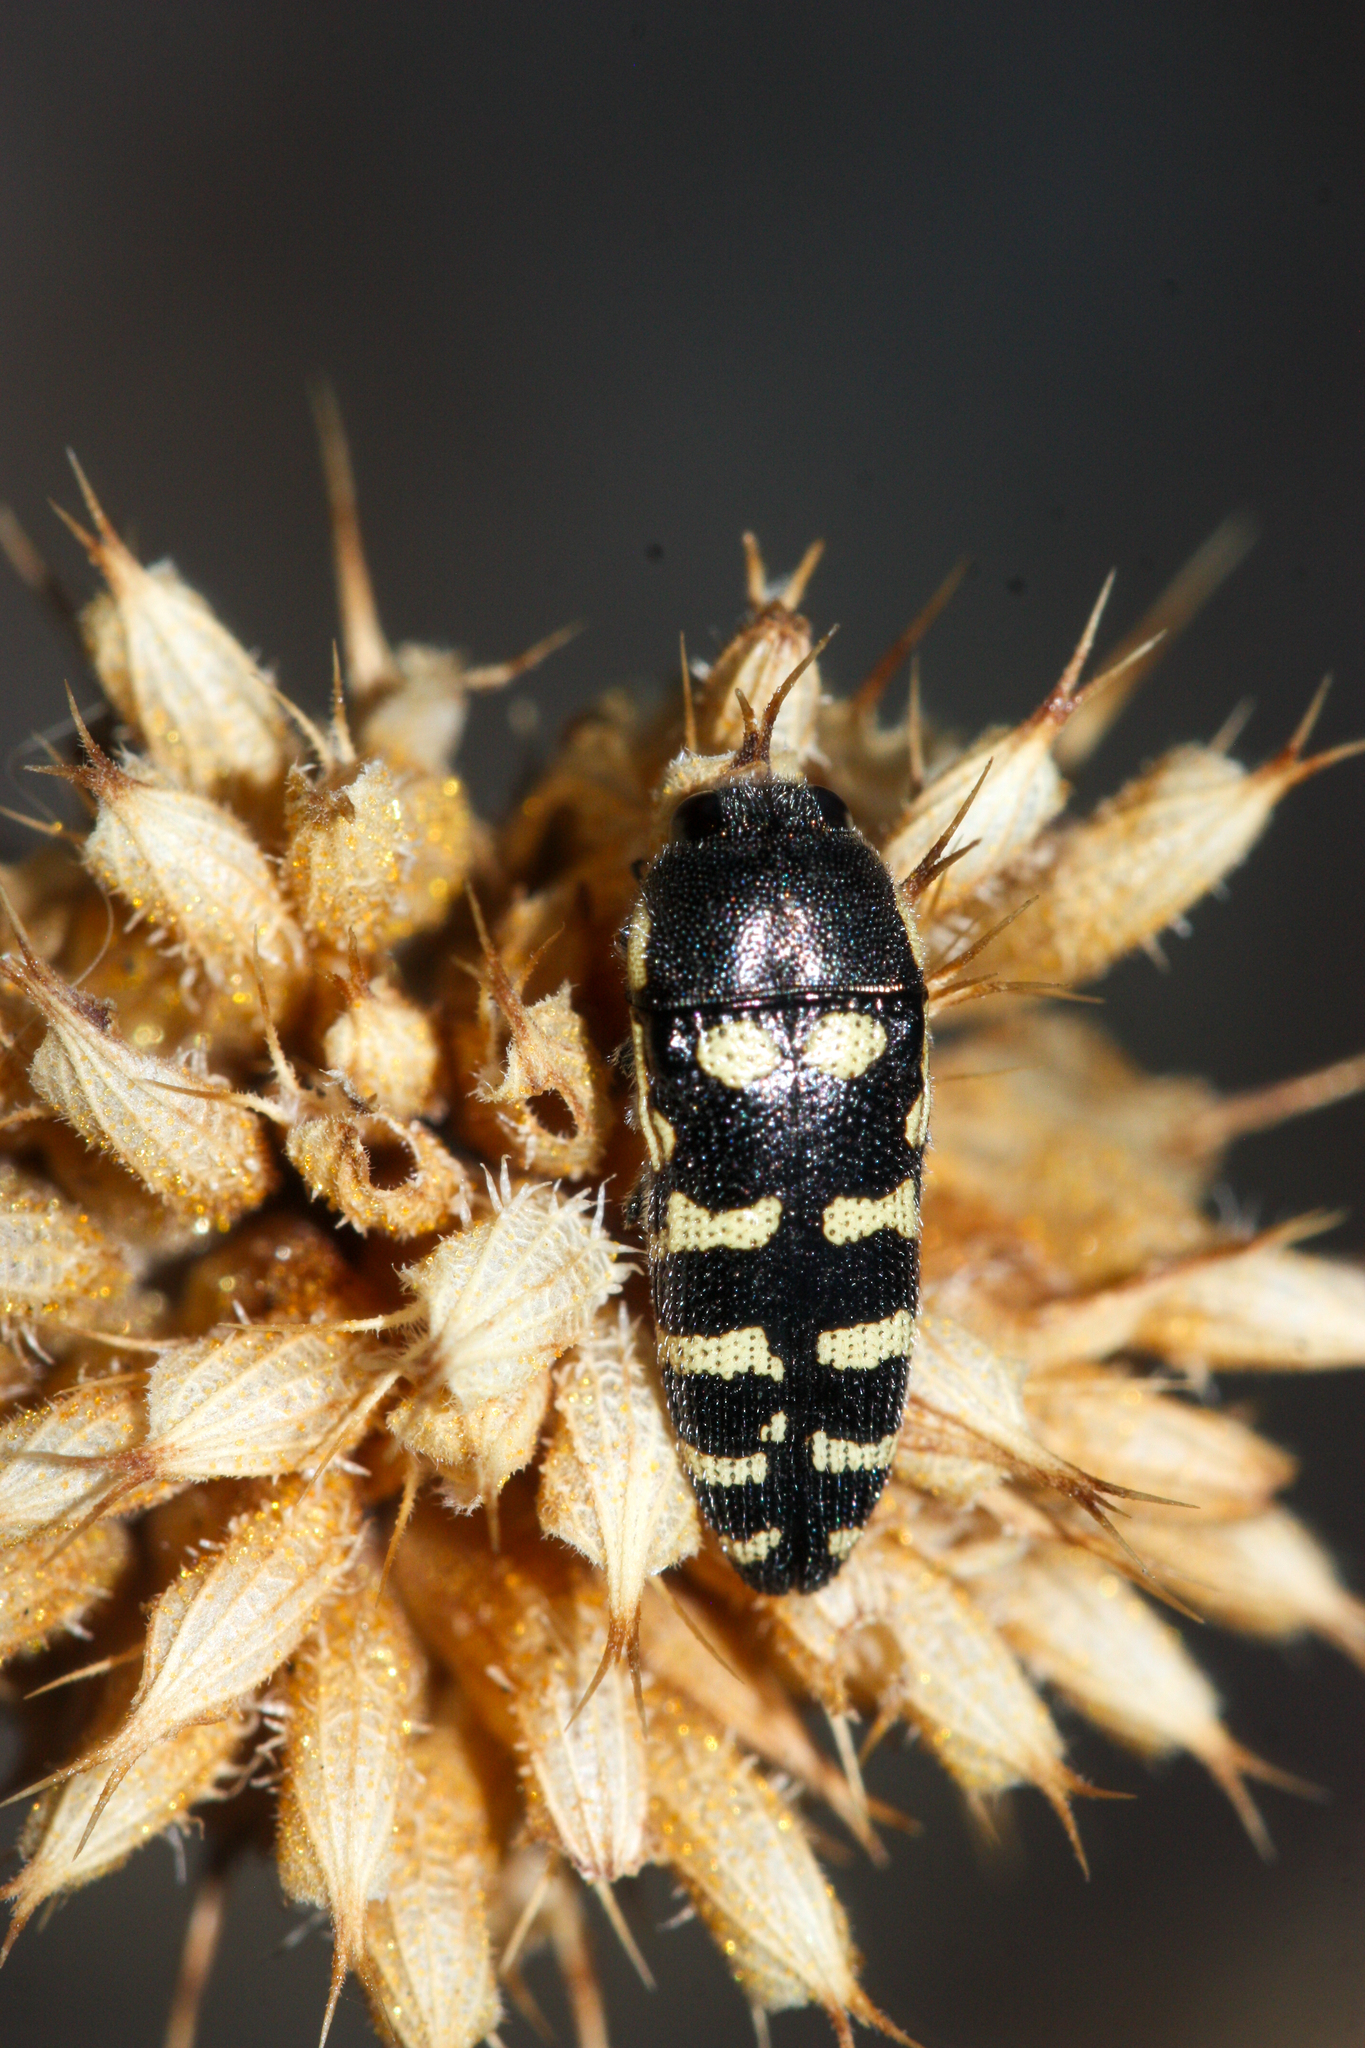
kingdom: Animalia
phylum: Arthropoda
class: Insecta
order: Coleoptera
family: Buprestidae
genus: Acmaeodera
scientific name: Acmaeodera alicia
